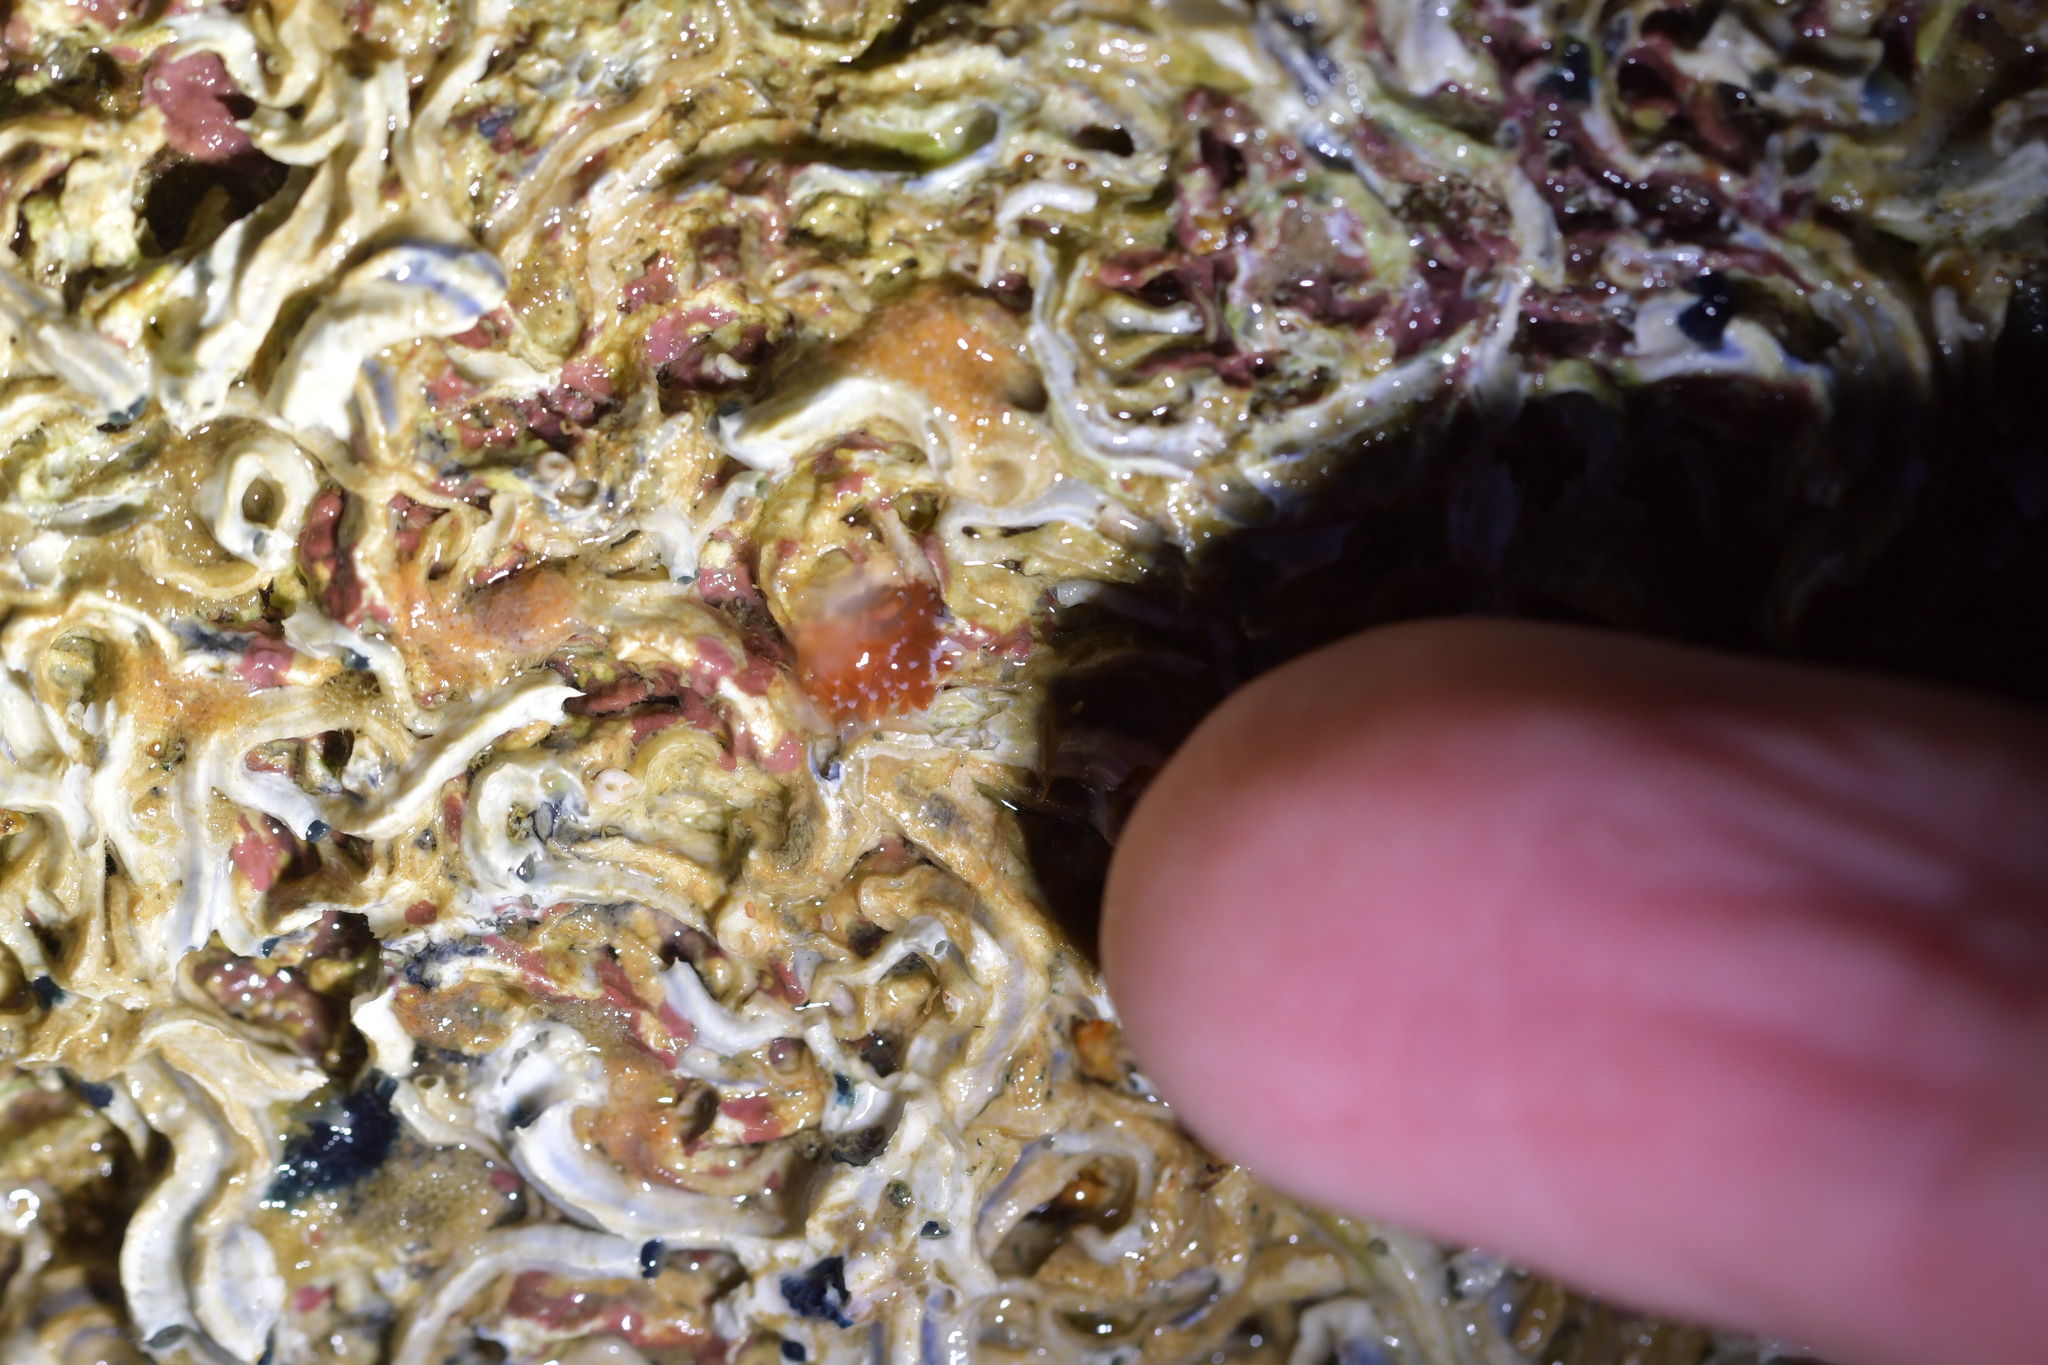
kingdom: Animalia
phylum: Mollusca
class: Gastropoda
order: Nudibranchia
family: Facelinidae
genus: Phidiana
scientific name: Phidiana milleri
